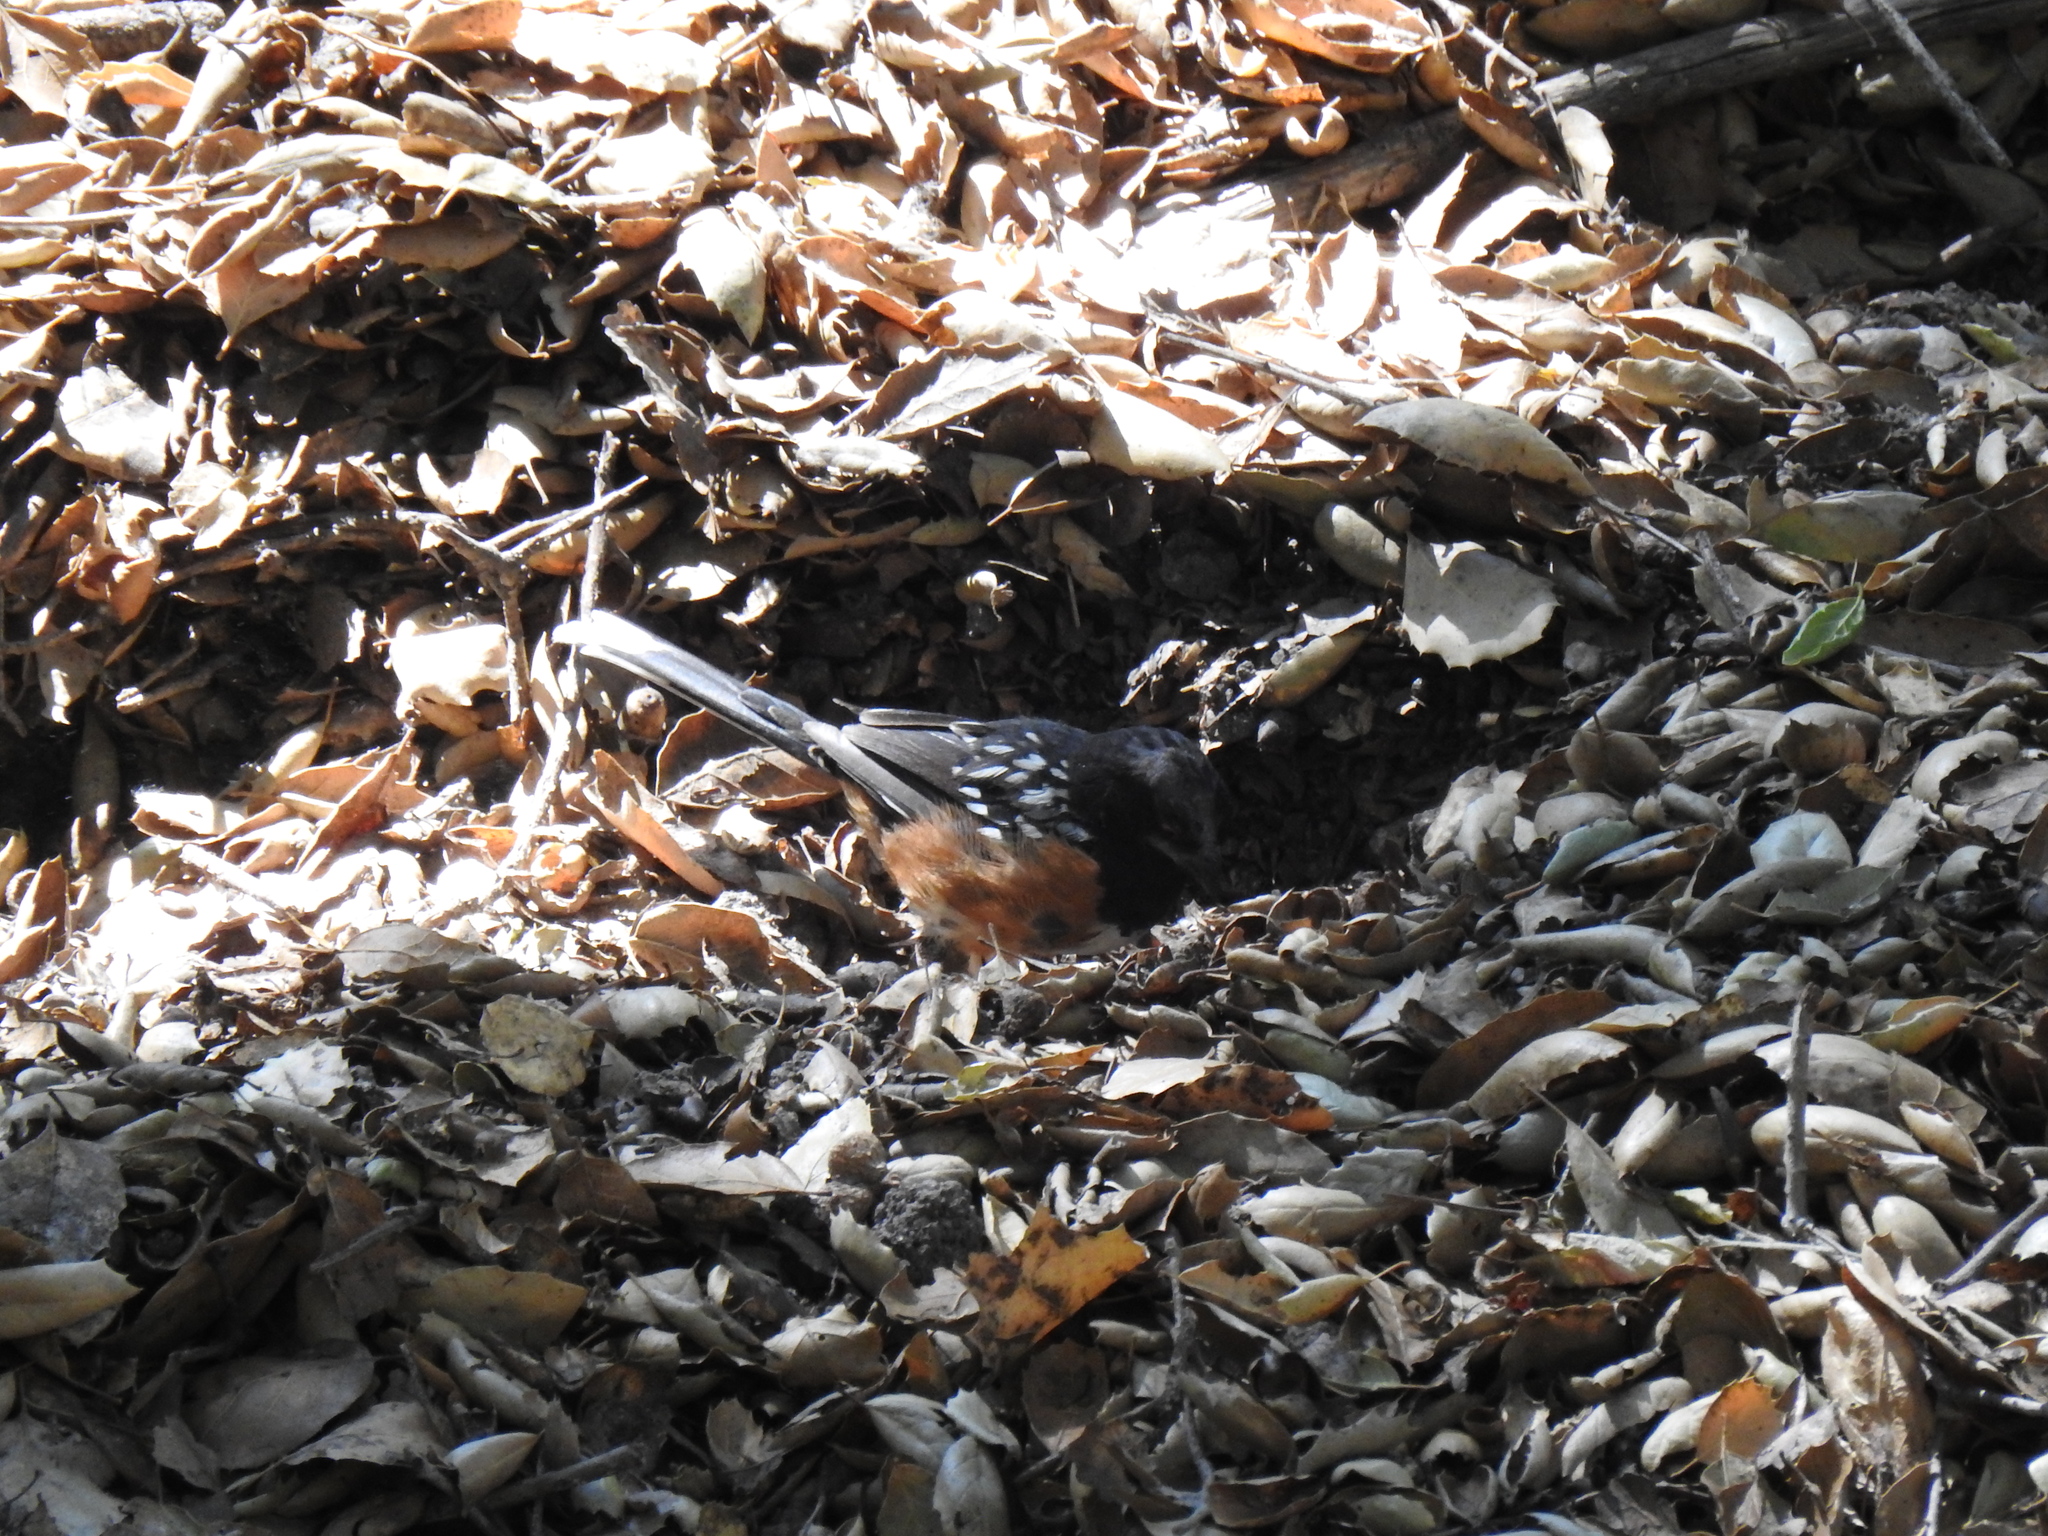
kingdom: Animalia
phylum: Chordata
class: Aves
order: Passeriformes
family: Passerellidae
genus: Pipilo
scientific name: Pipilo maculatus
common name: Spotted towhee
